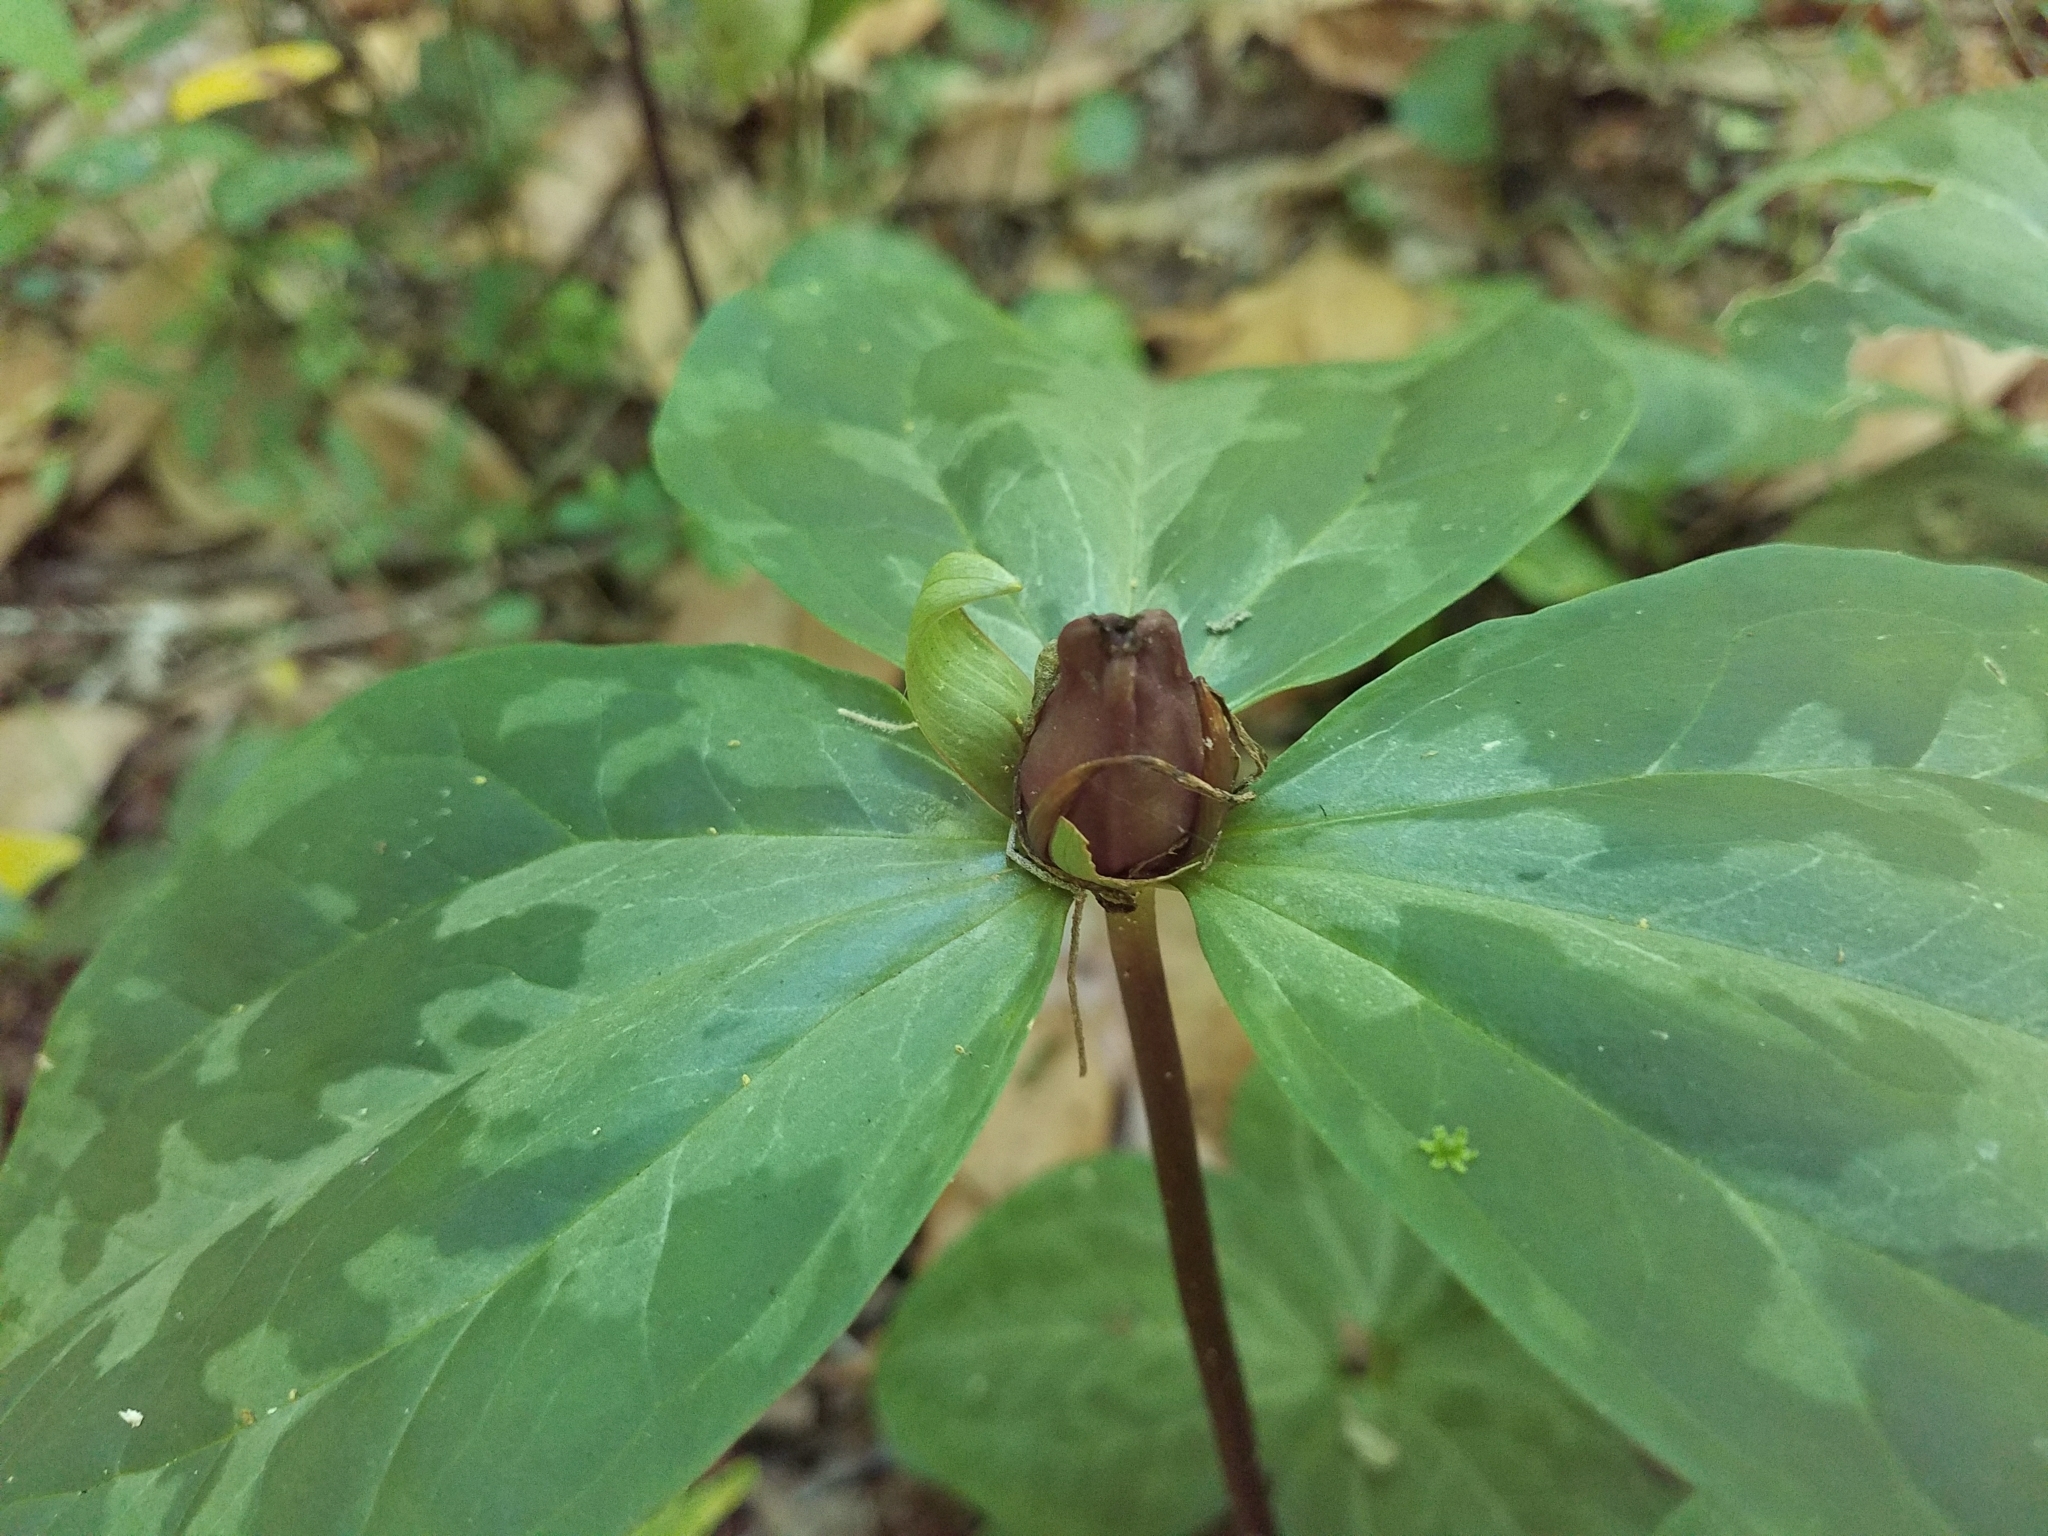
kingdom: Plantae
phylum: Tracheophyta
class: Liliopsida
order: Liliales
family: Melanthiaceae
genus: Trillium
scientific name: Trillium maculatum
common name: Mottled trillium
